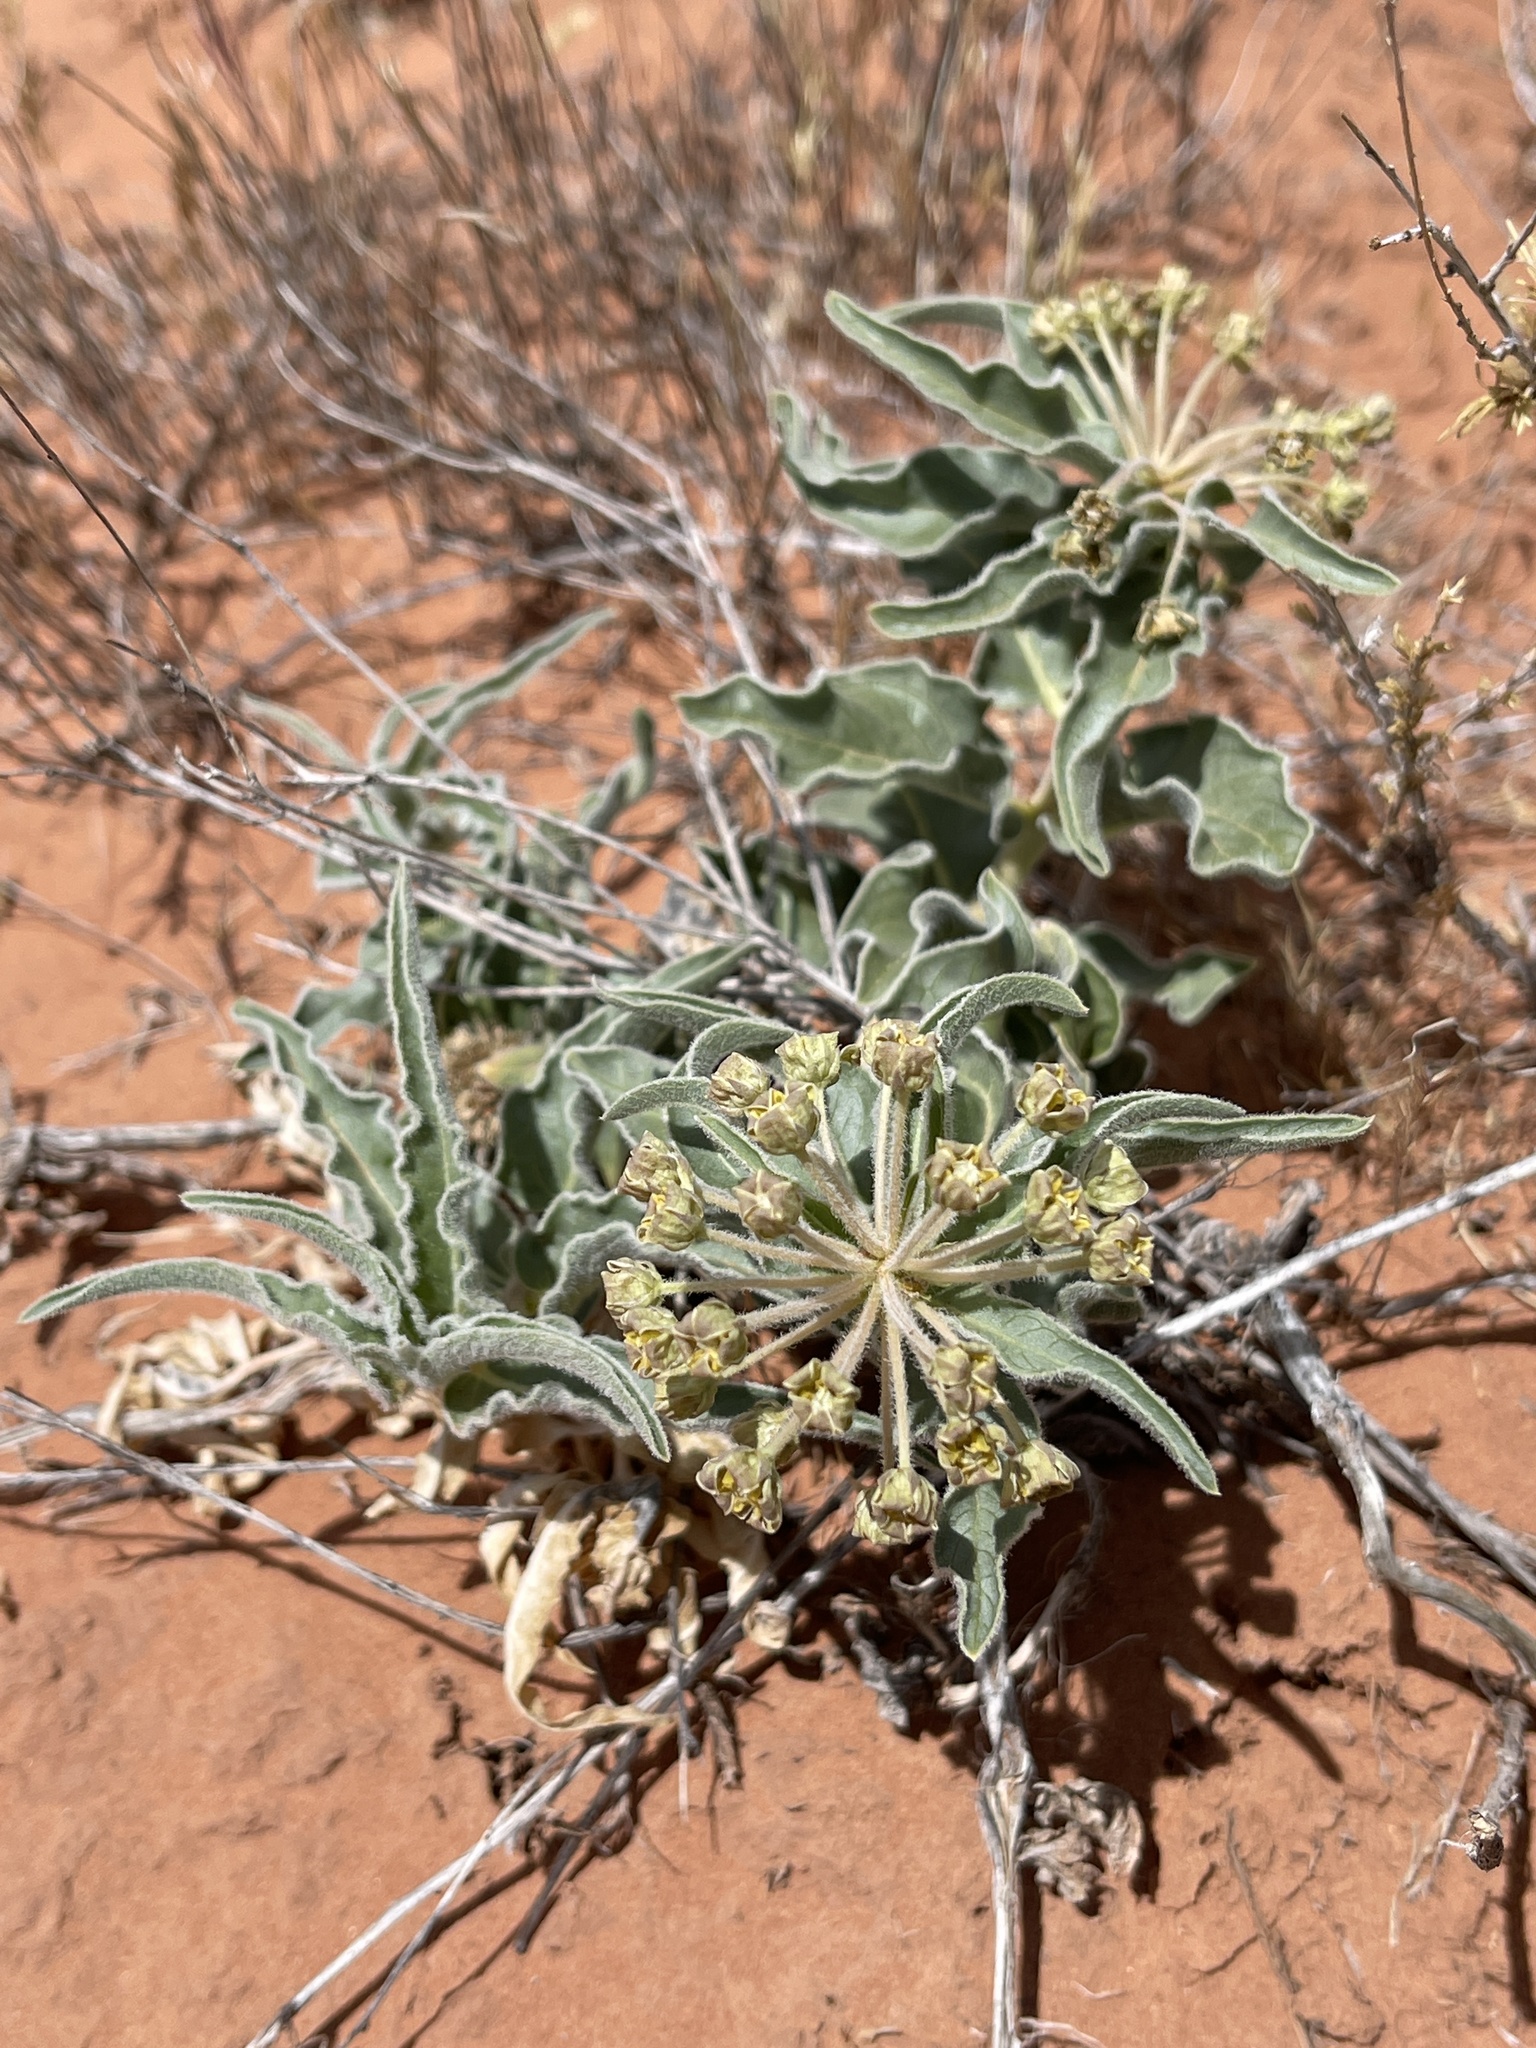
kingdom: Plantae
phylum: Tracheophyta
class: Magnoliopsida
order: Gentianales
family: Apocynaceae
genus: Asclepias
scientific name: Asclepias involucrata
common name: Dwarf milkweed
